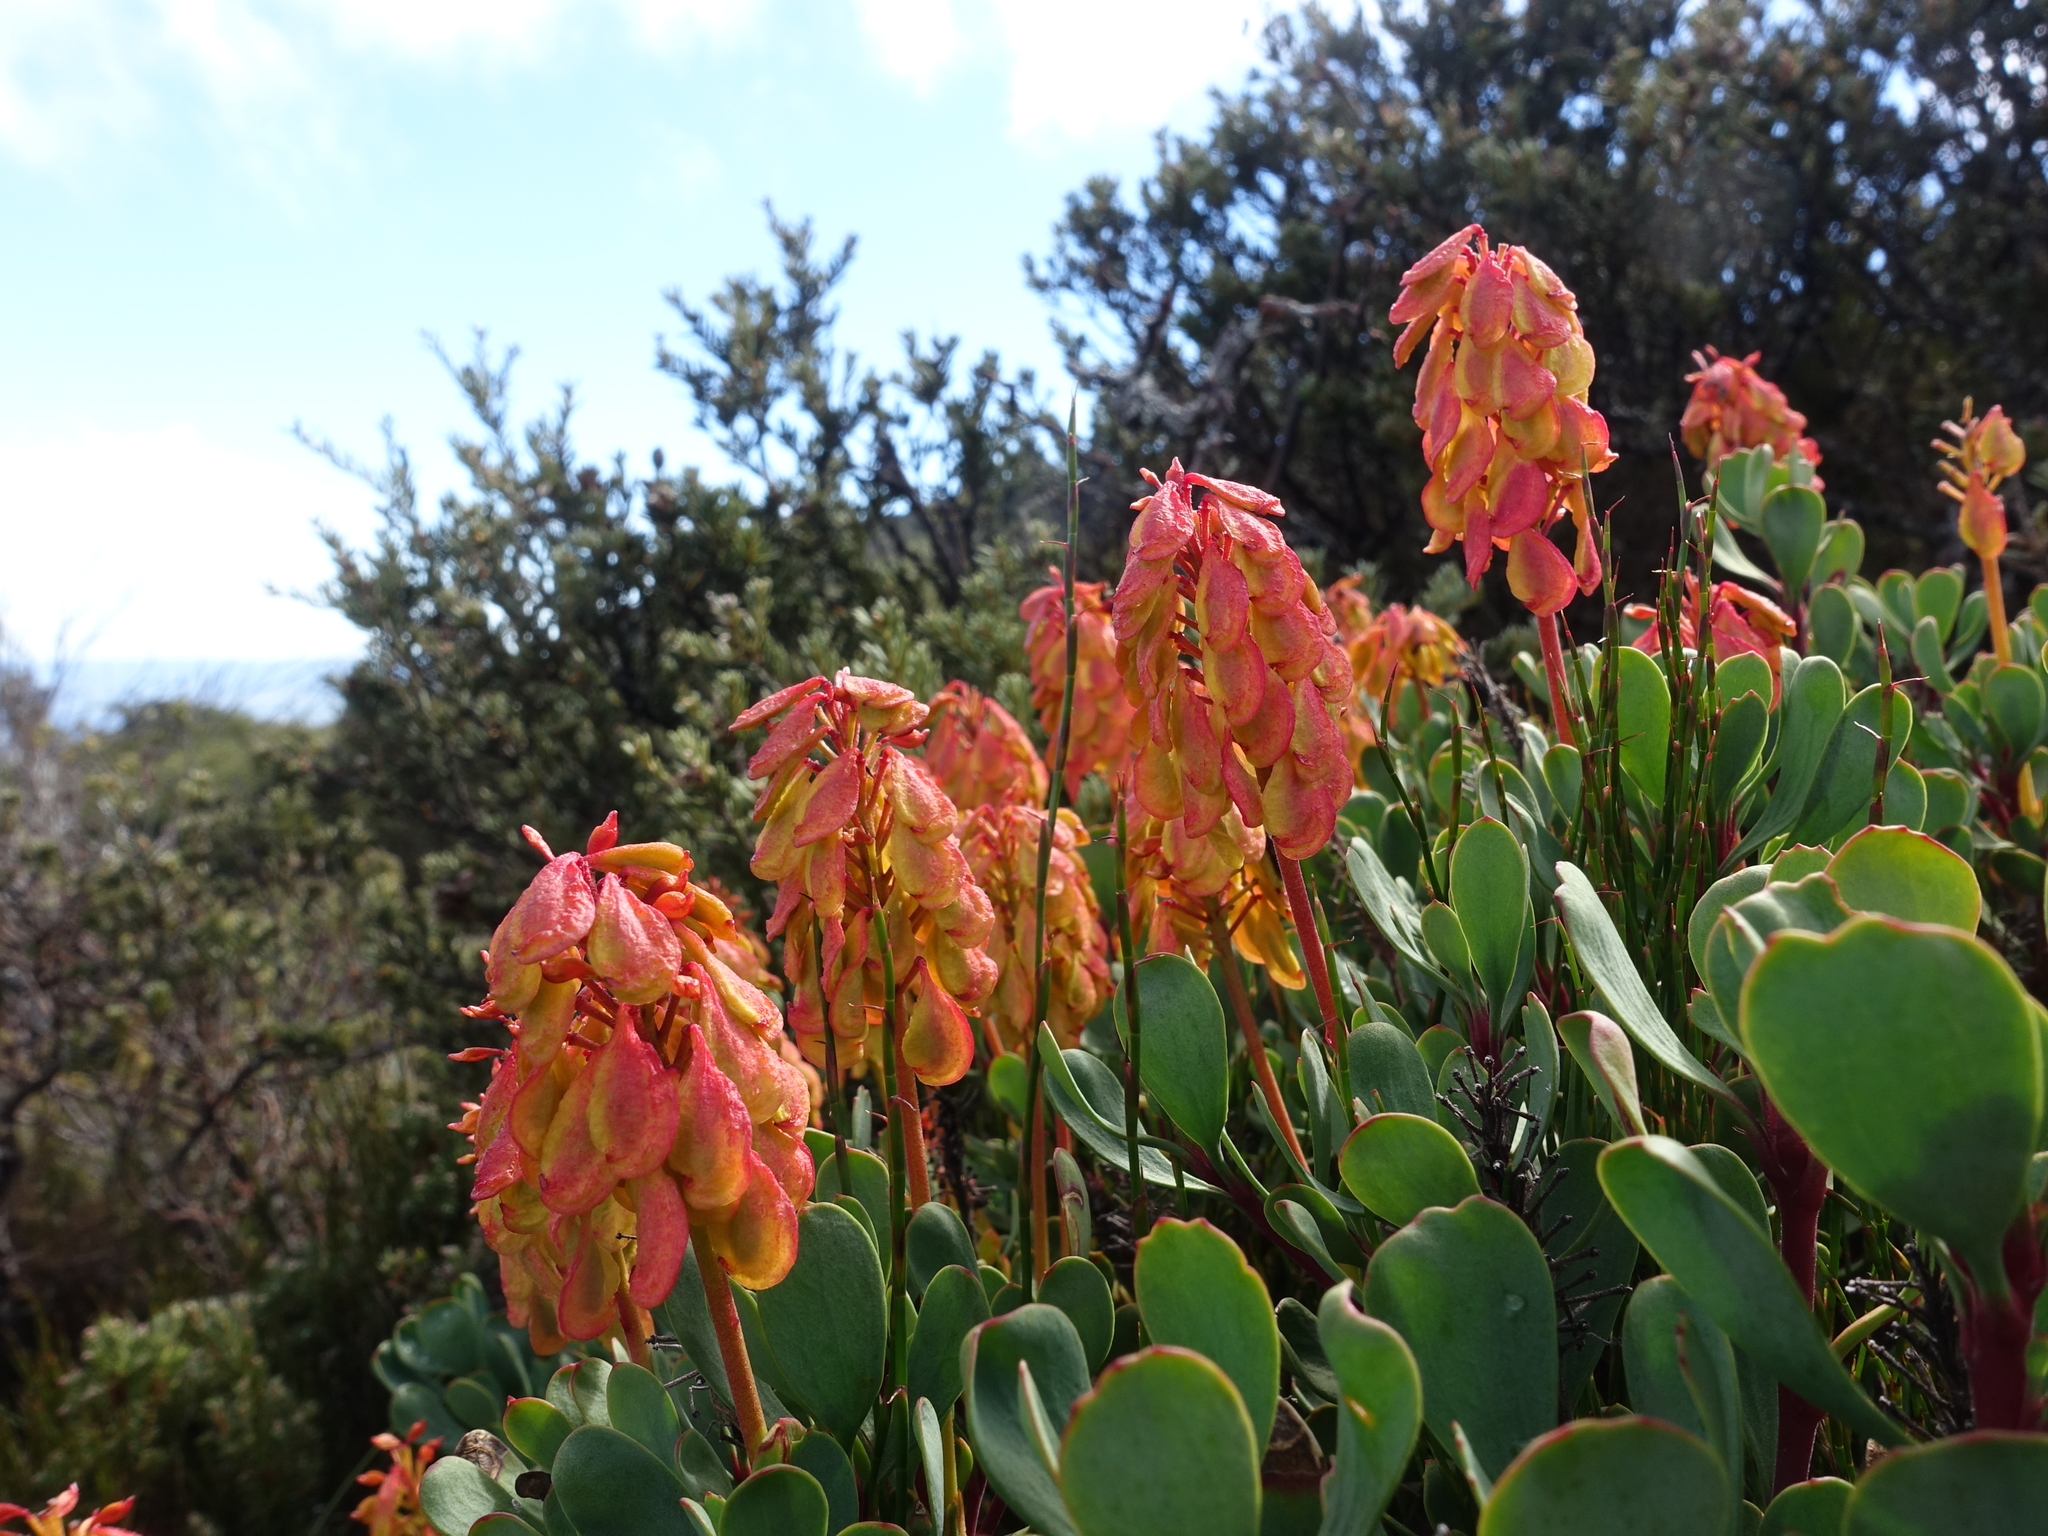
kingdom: Plantae
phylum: Tracheophyta
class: Magnoliopsida
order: Proteales
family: Proteaceae
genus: Bellendena
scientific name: Bellendena montana
